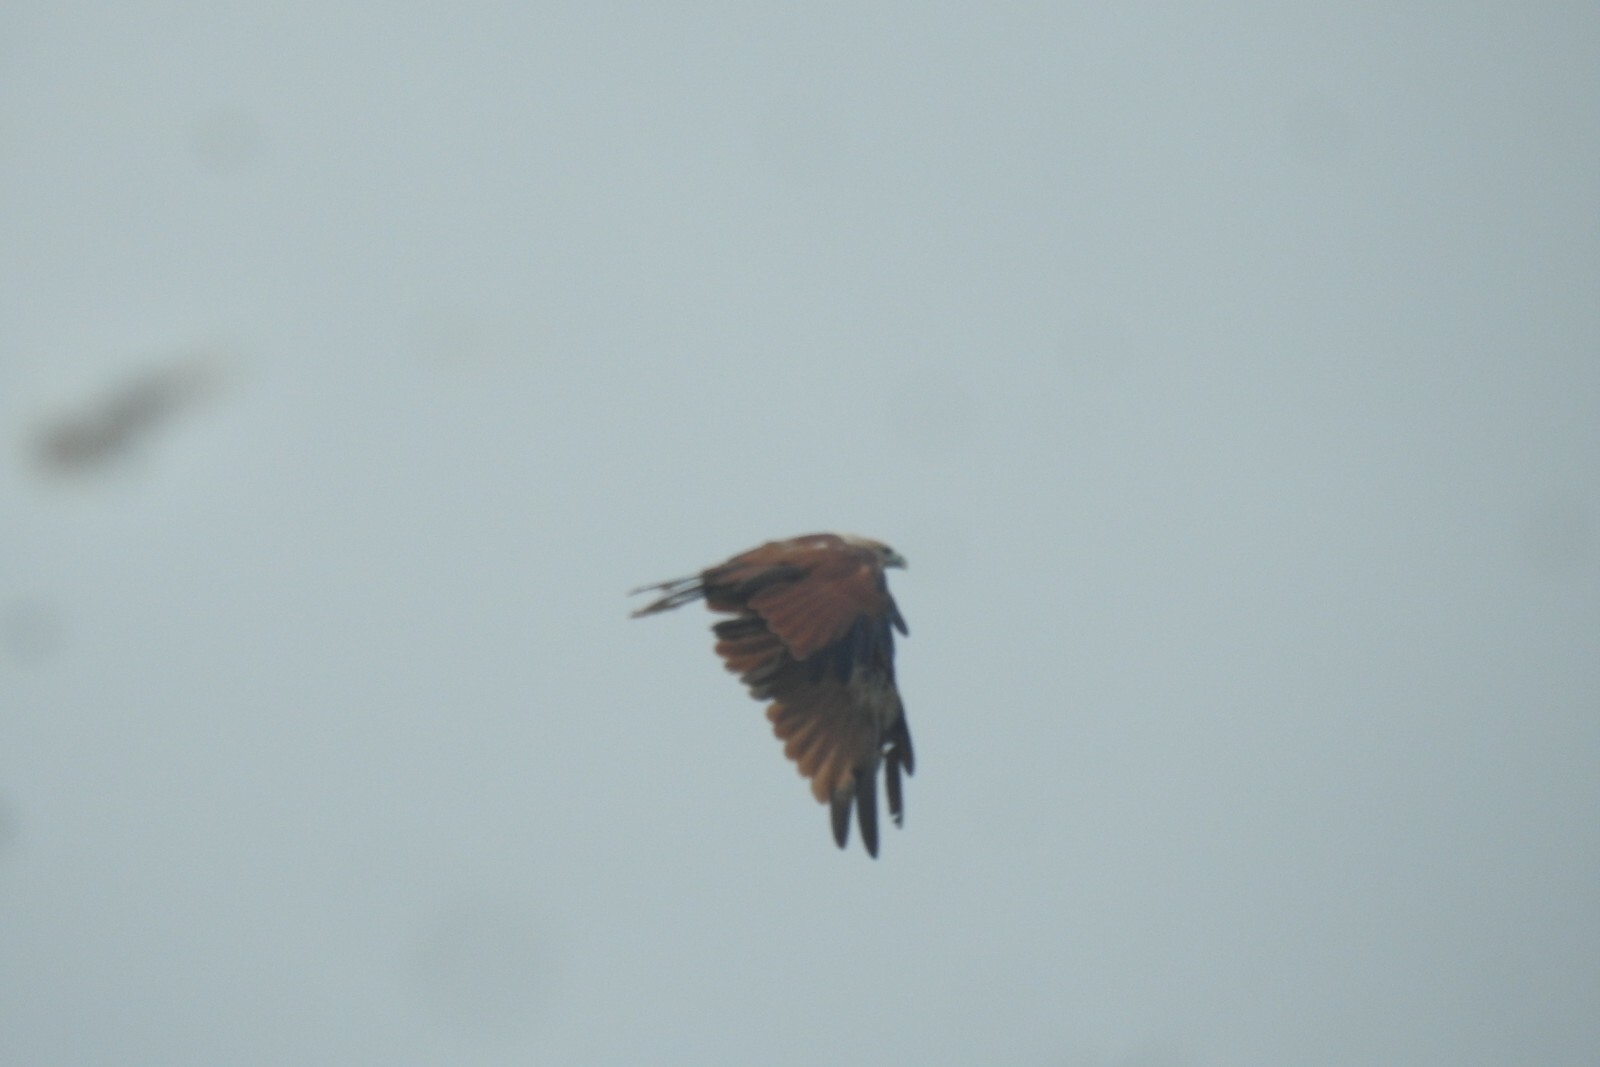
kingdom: Animalia
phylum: Chordata
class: Aves
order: Accipitriformes
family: Accipitridae
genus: Haliastur
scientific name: Haliastur indus
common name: Brahminy kite
